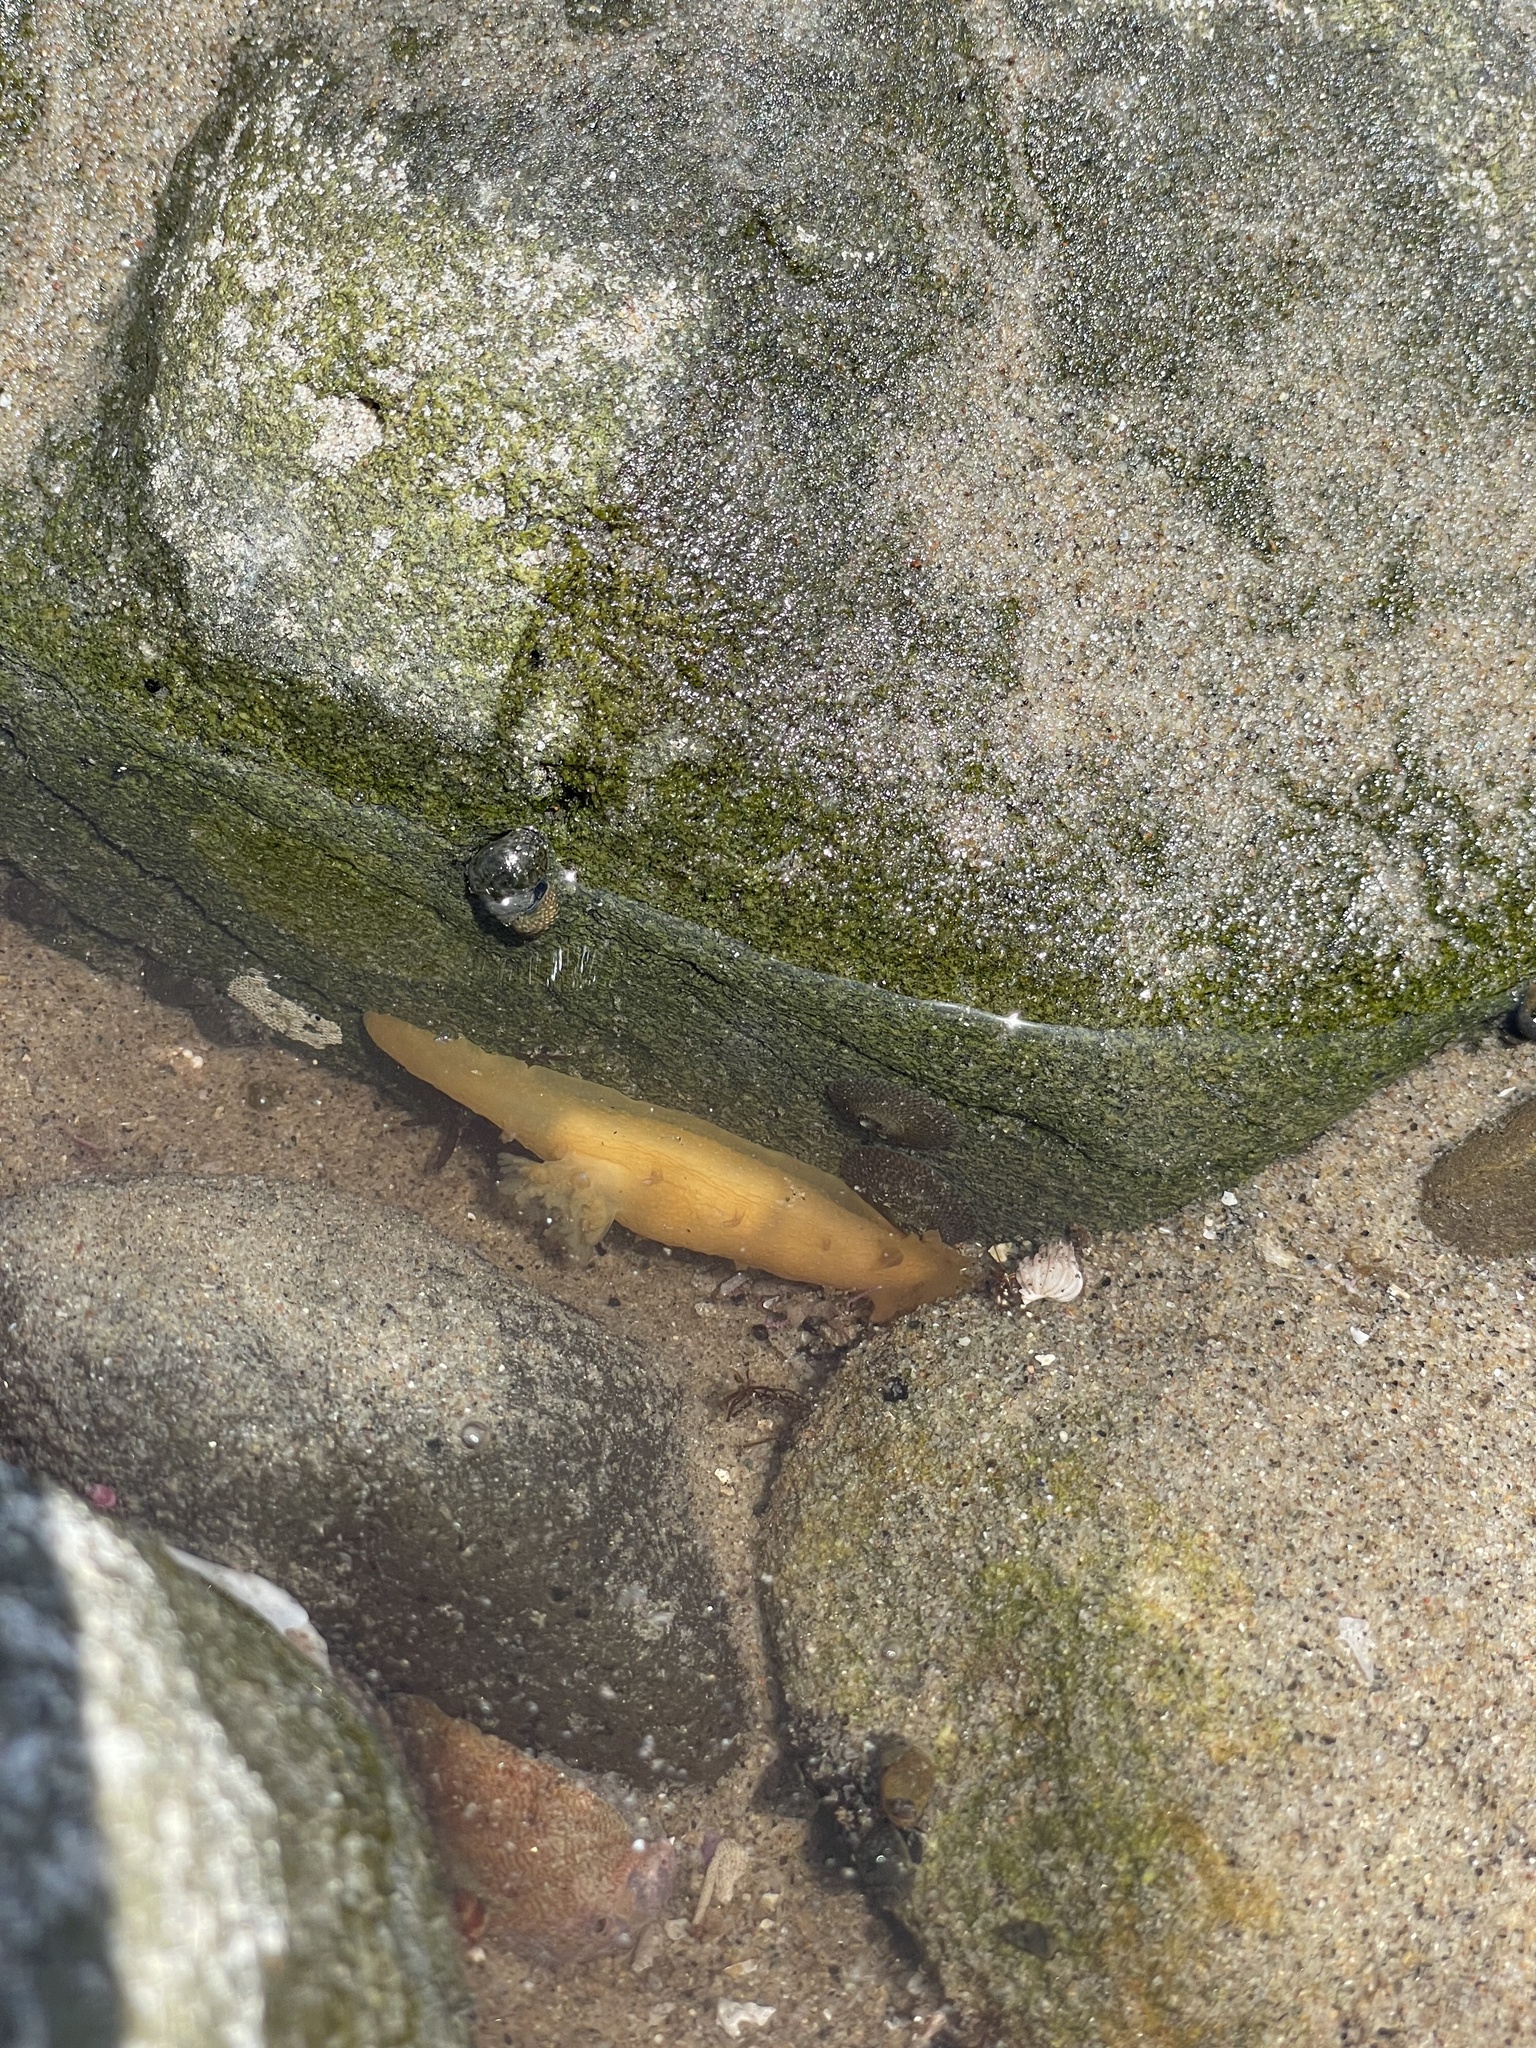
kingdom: Animalia
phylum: Mollusca
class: Gastropoda
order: Nudibranchia
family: Polyceridae
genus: Triopha
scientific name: Triopha maculata
